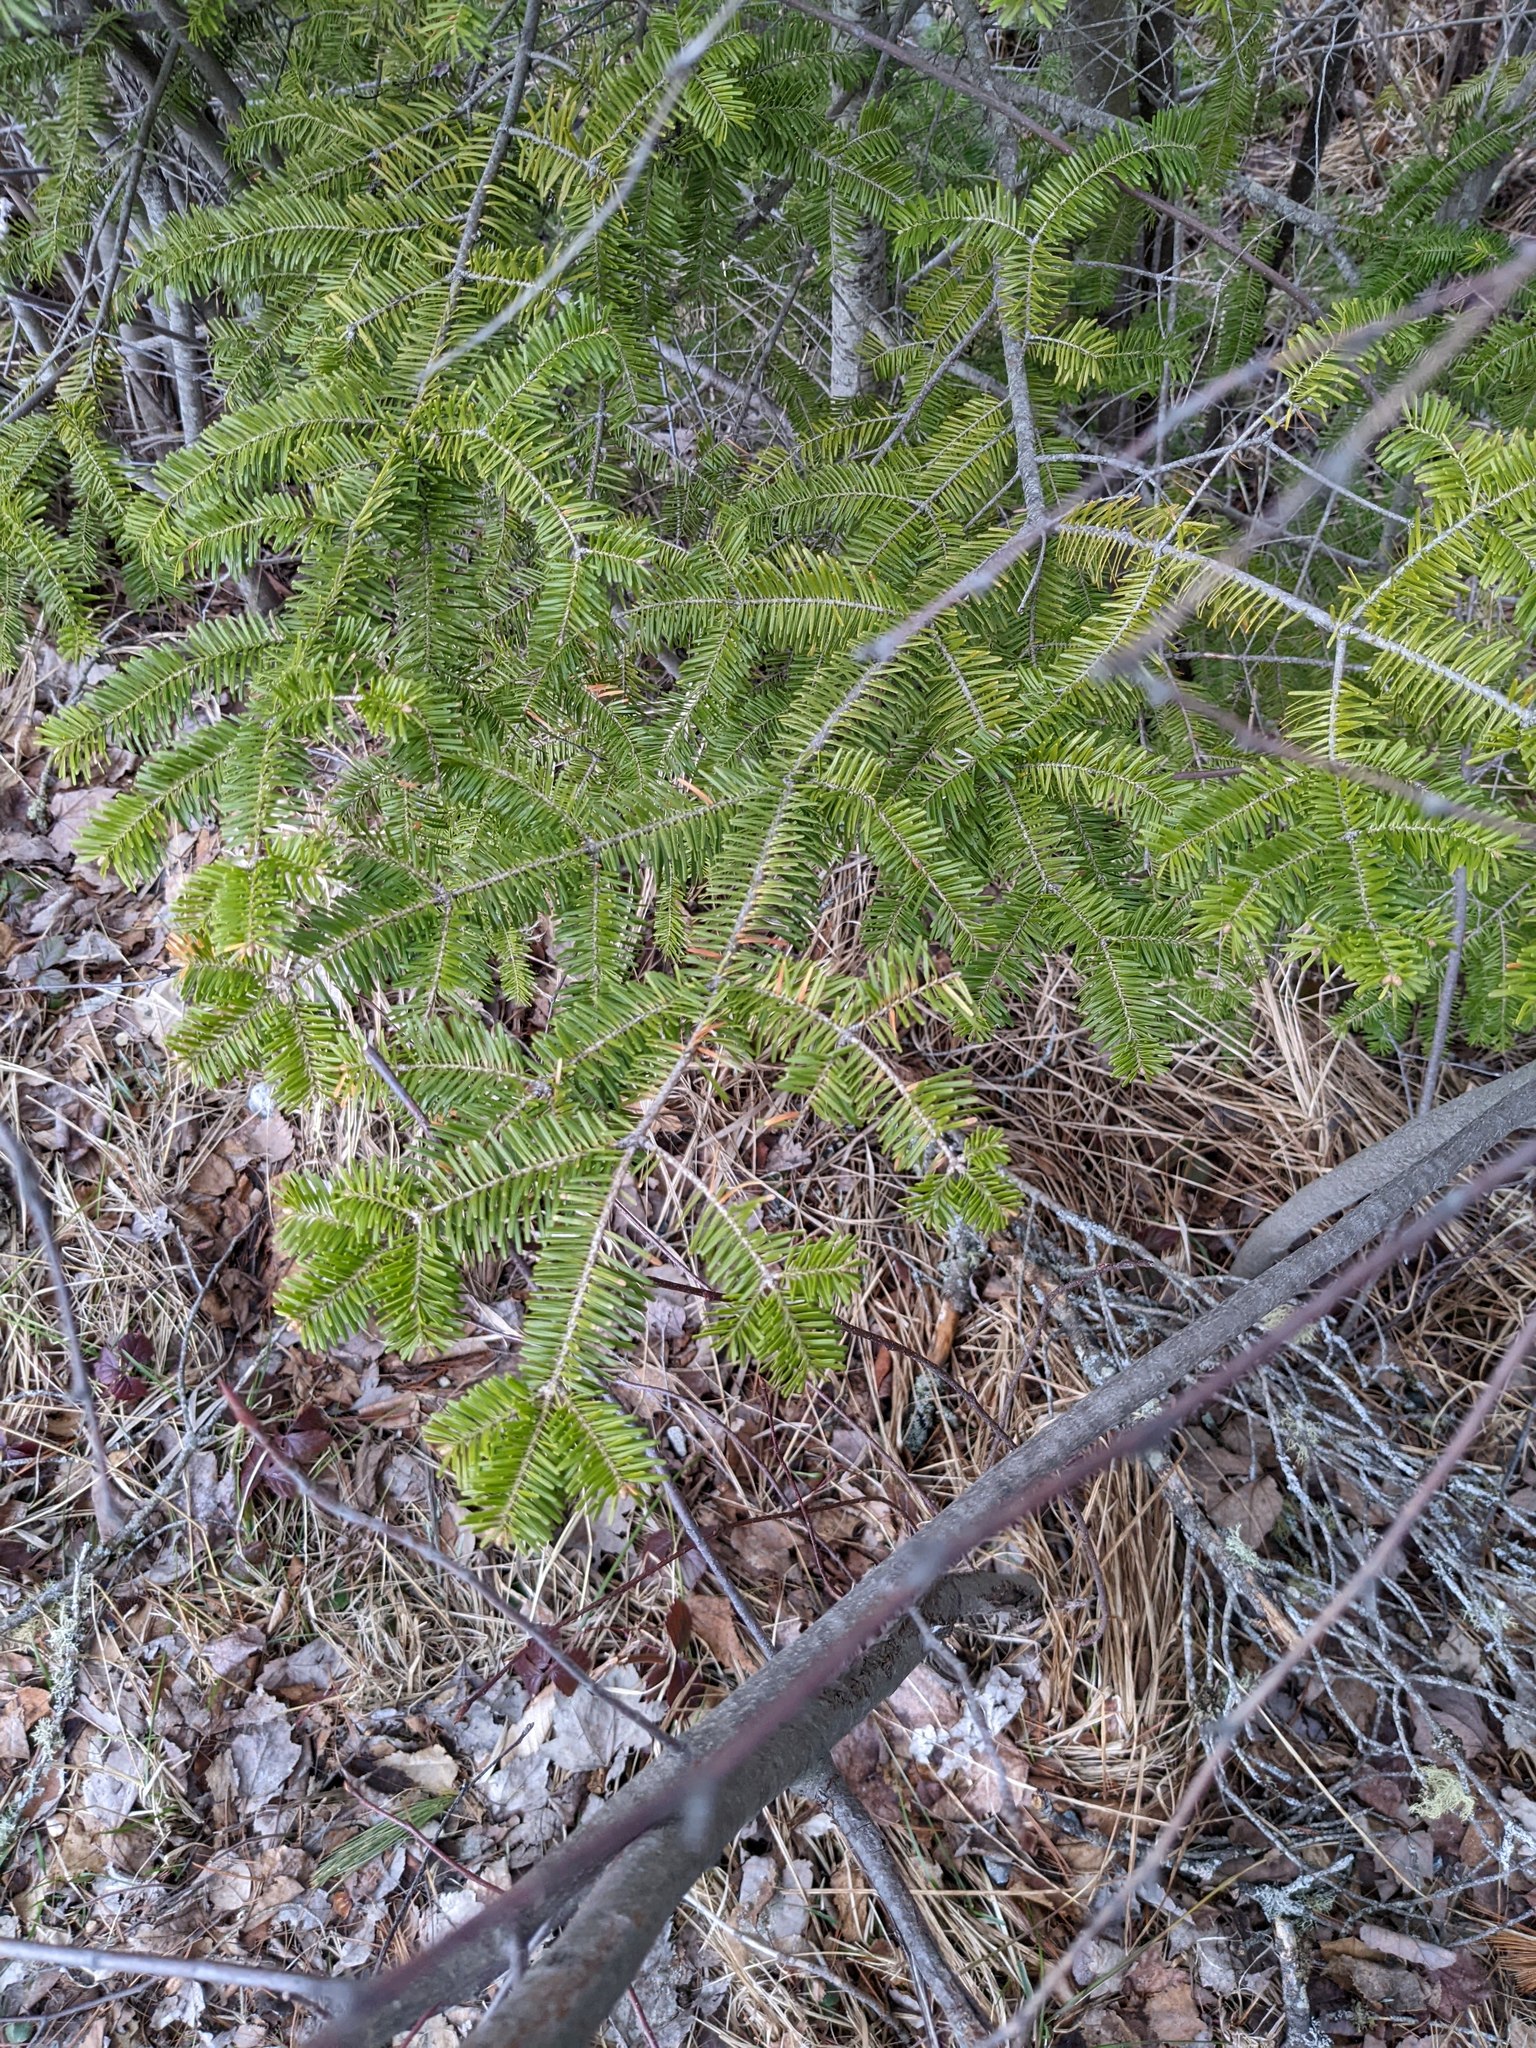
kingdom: Plantae
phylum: Tracheophyta
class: Pinopsida
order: Pinales
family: Pinaceae
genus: Abies
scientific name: Abies balsamea
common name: Balsam fir
